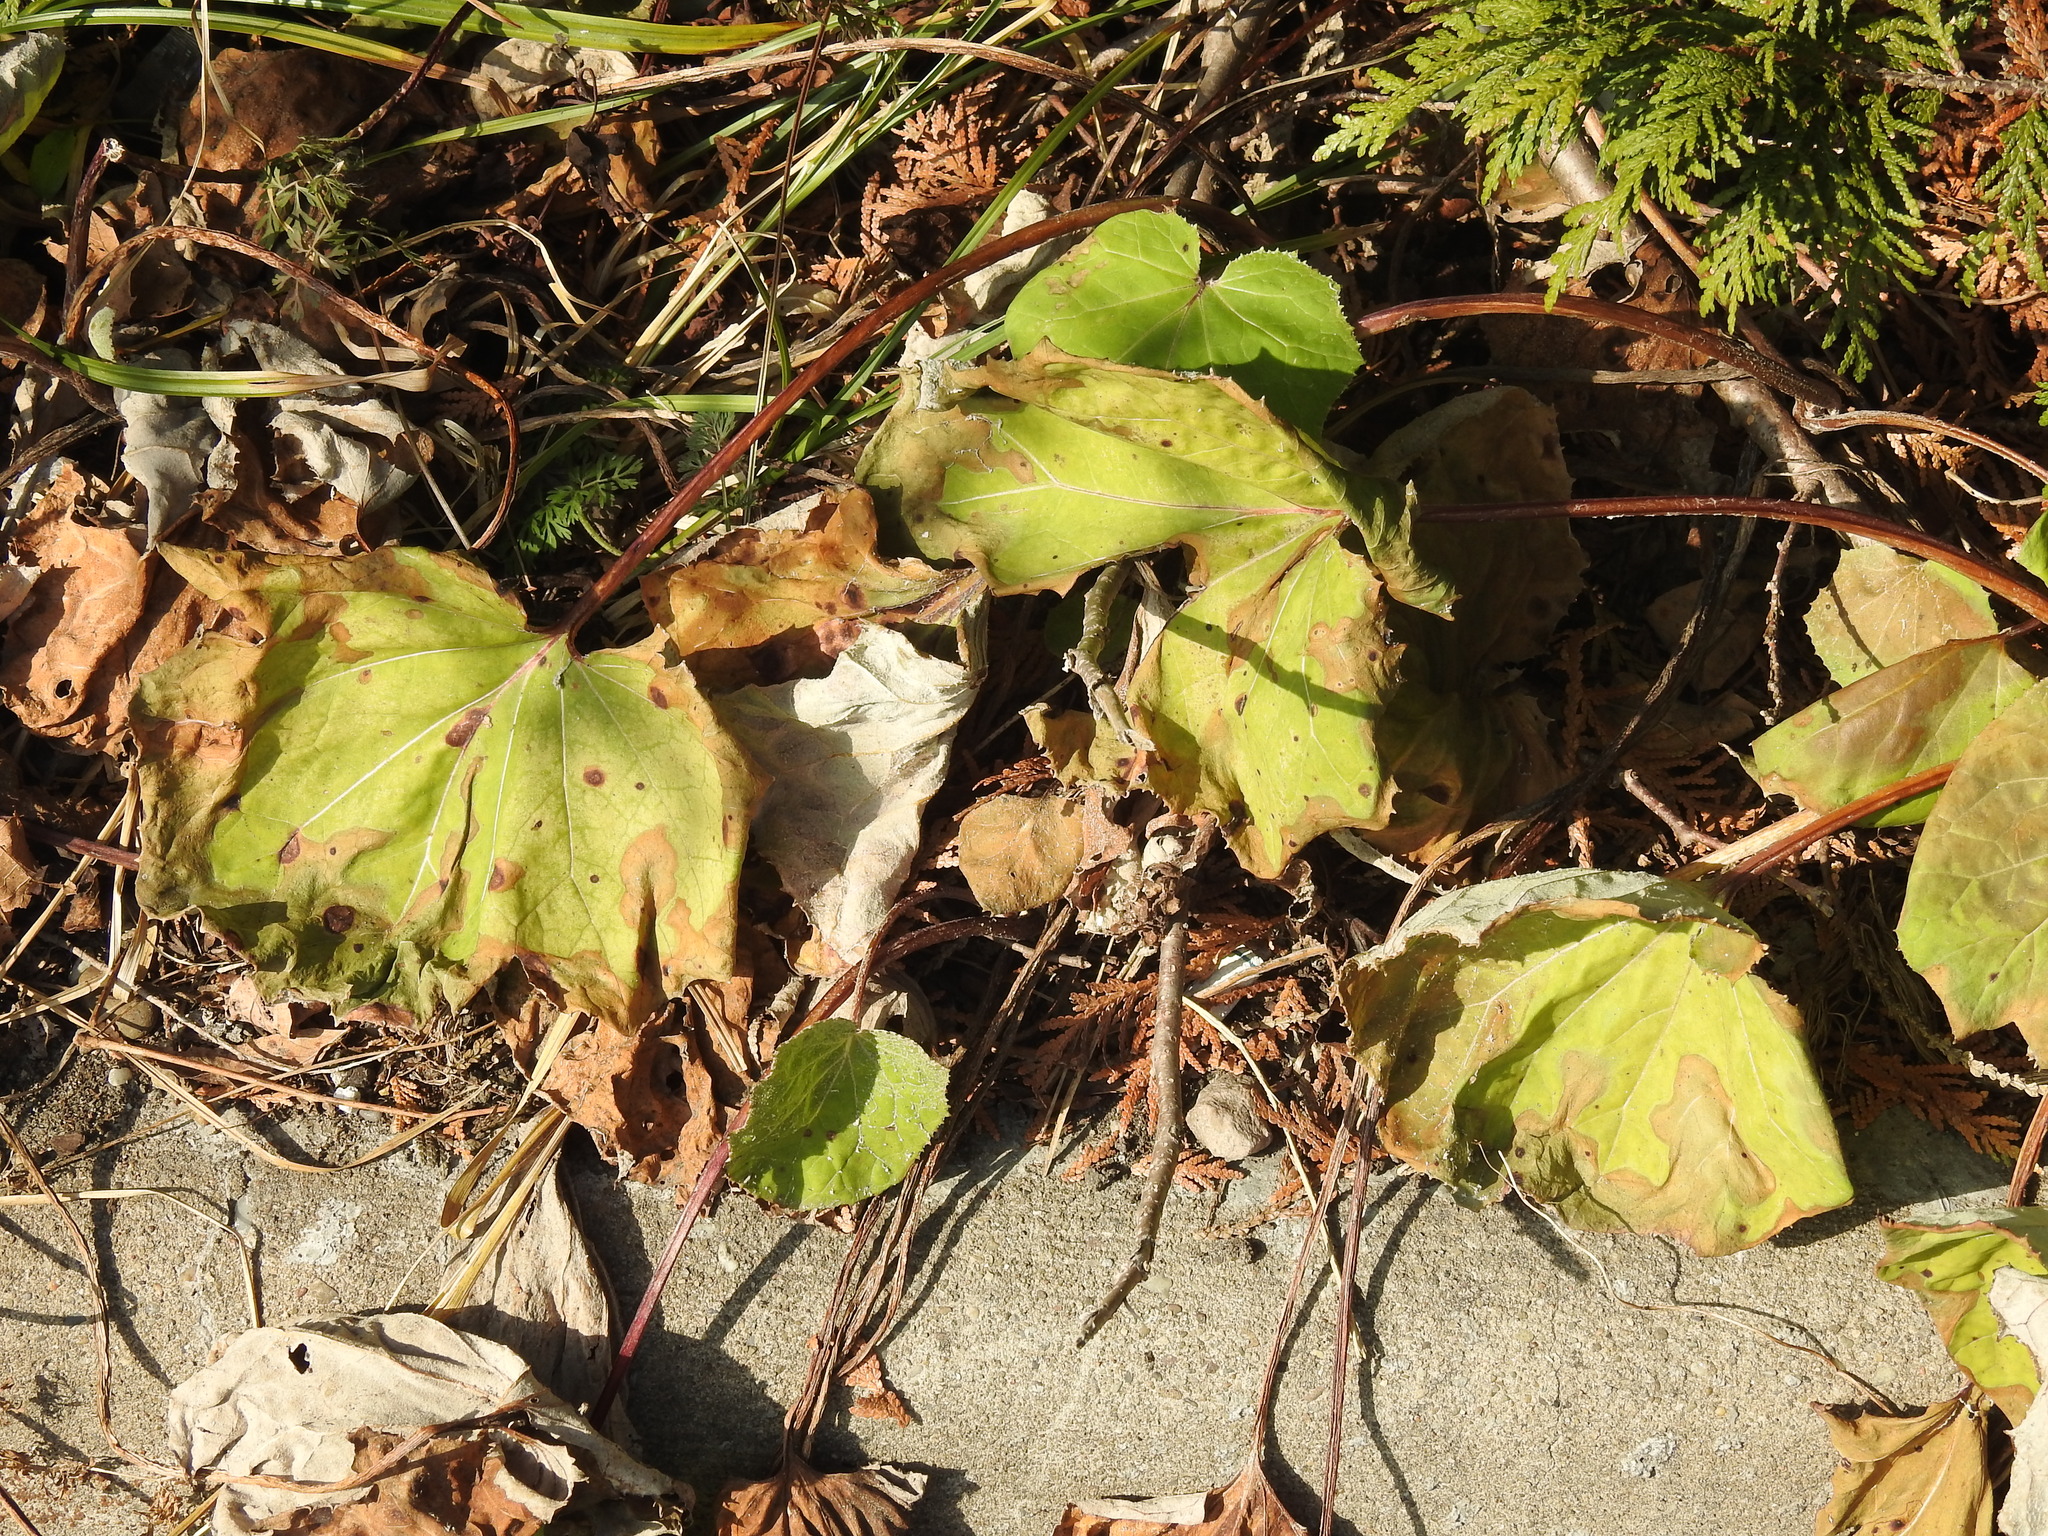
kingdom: Plantae
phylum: Tracheophyta
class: Magnoliopsida
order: Asterales
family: Asteraceae
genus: Tussilago
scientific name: Tussilago farfara
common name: Coltsfoot
